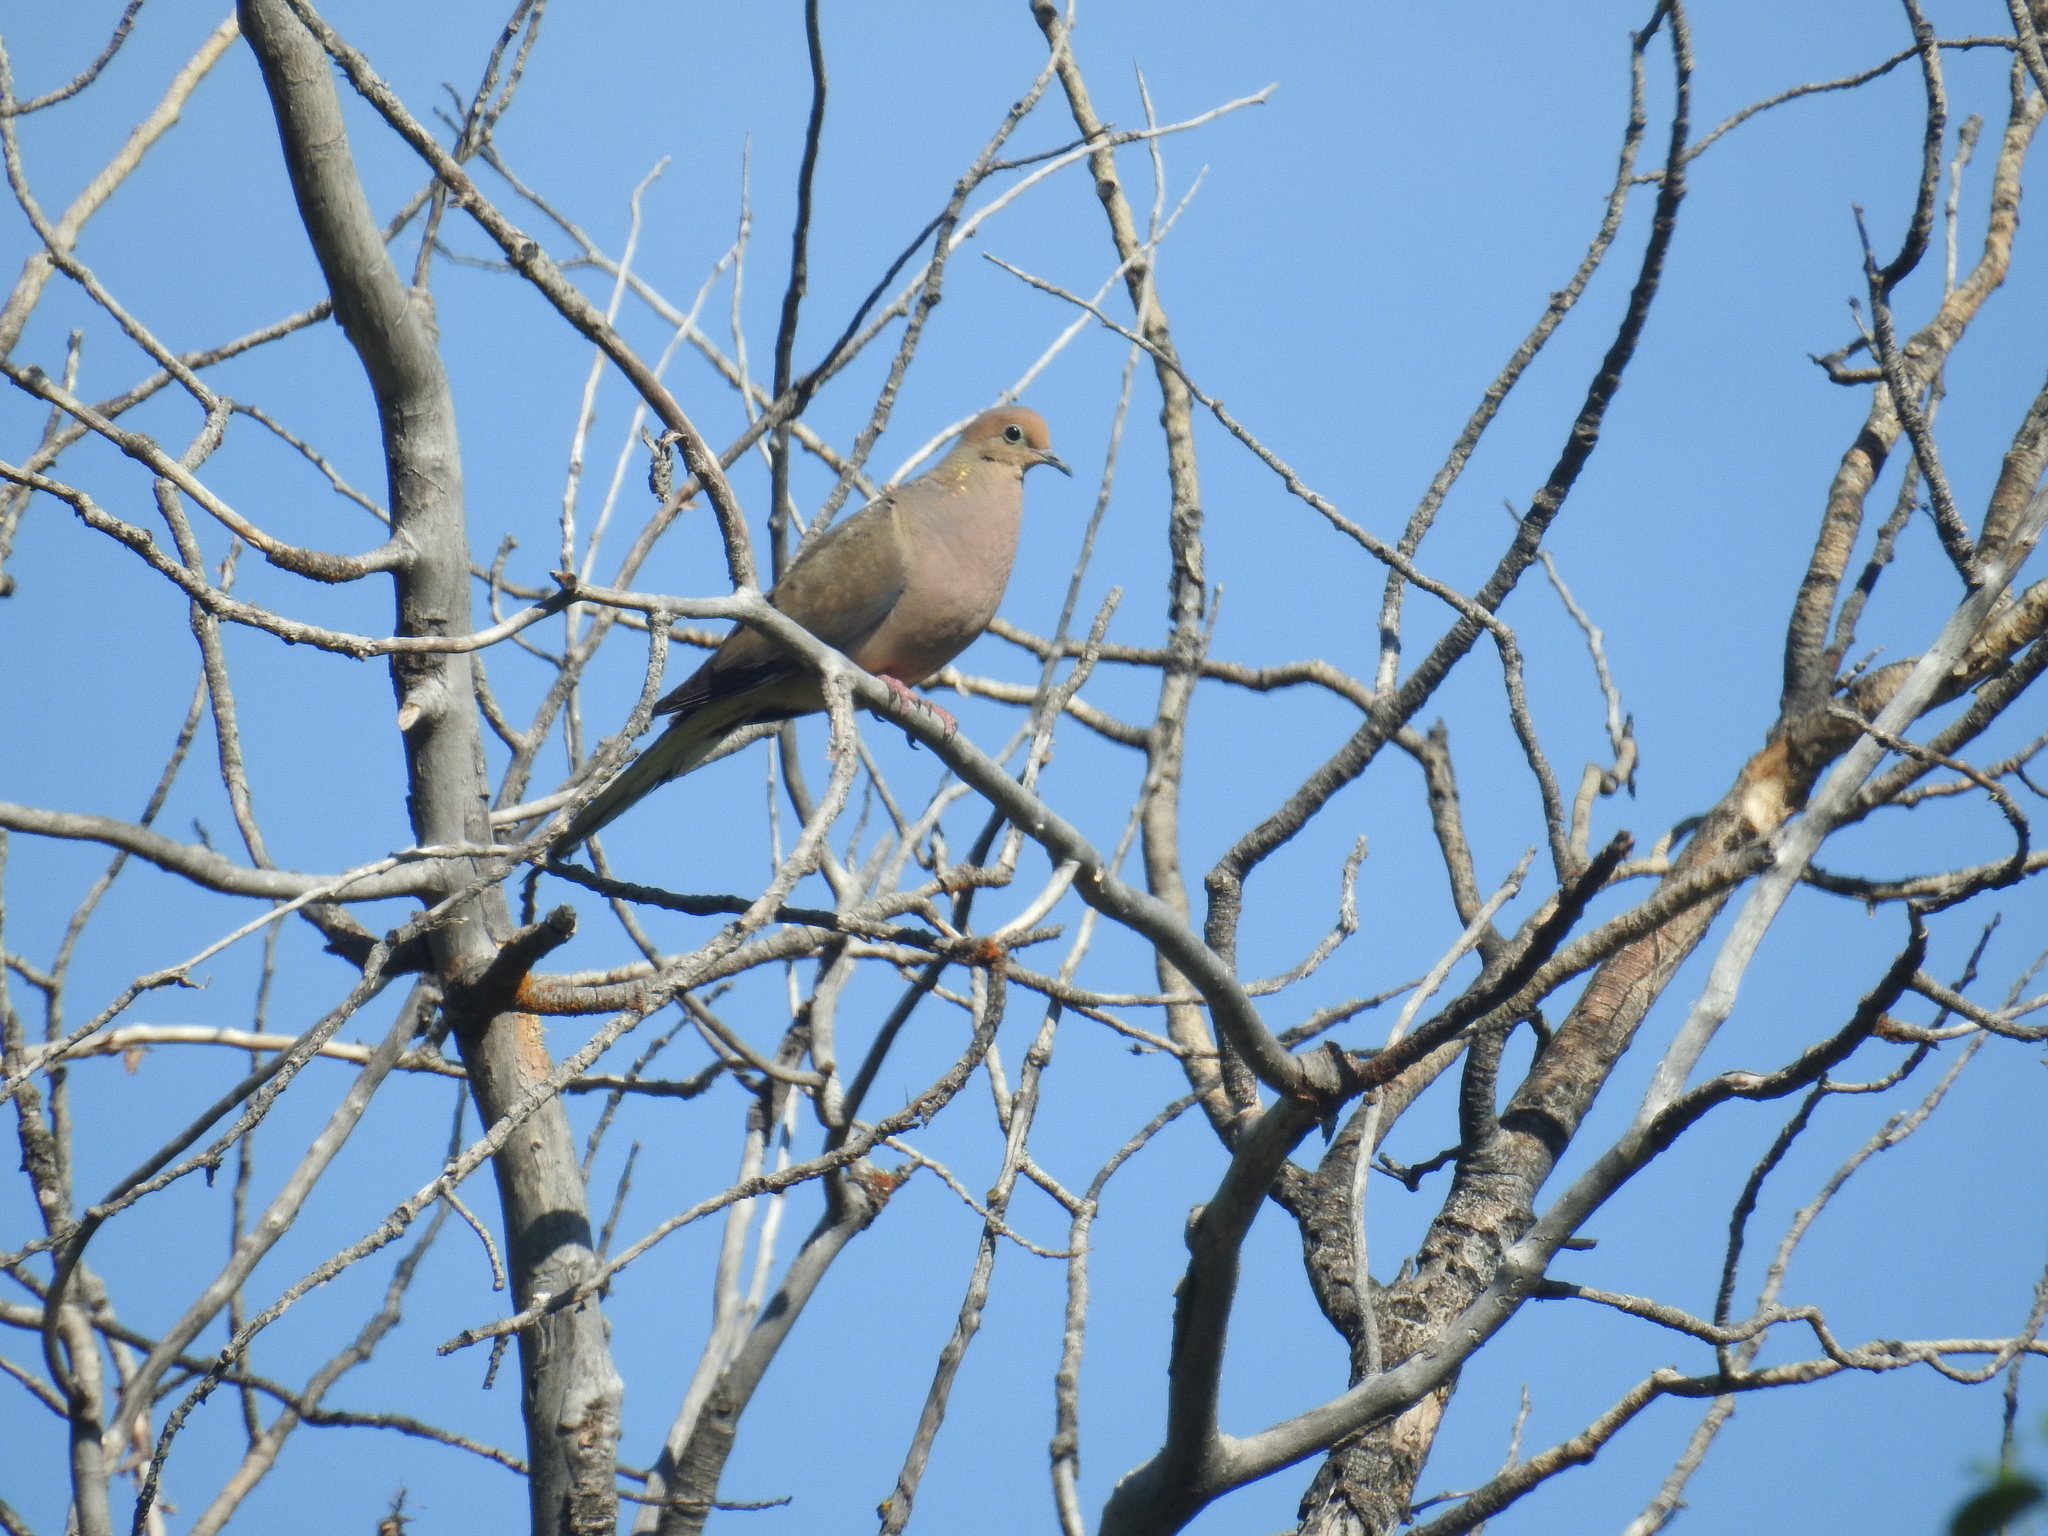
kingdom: Animalia
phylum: Chordata
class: Aves
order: Columbiformes
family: Columbidae
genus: Zenaida
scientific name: Zenaida macroura
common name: Mourning dove
